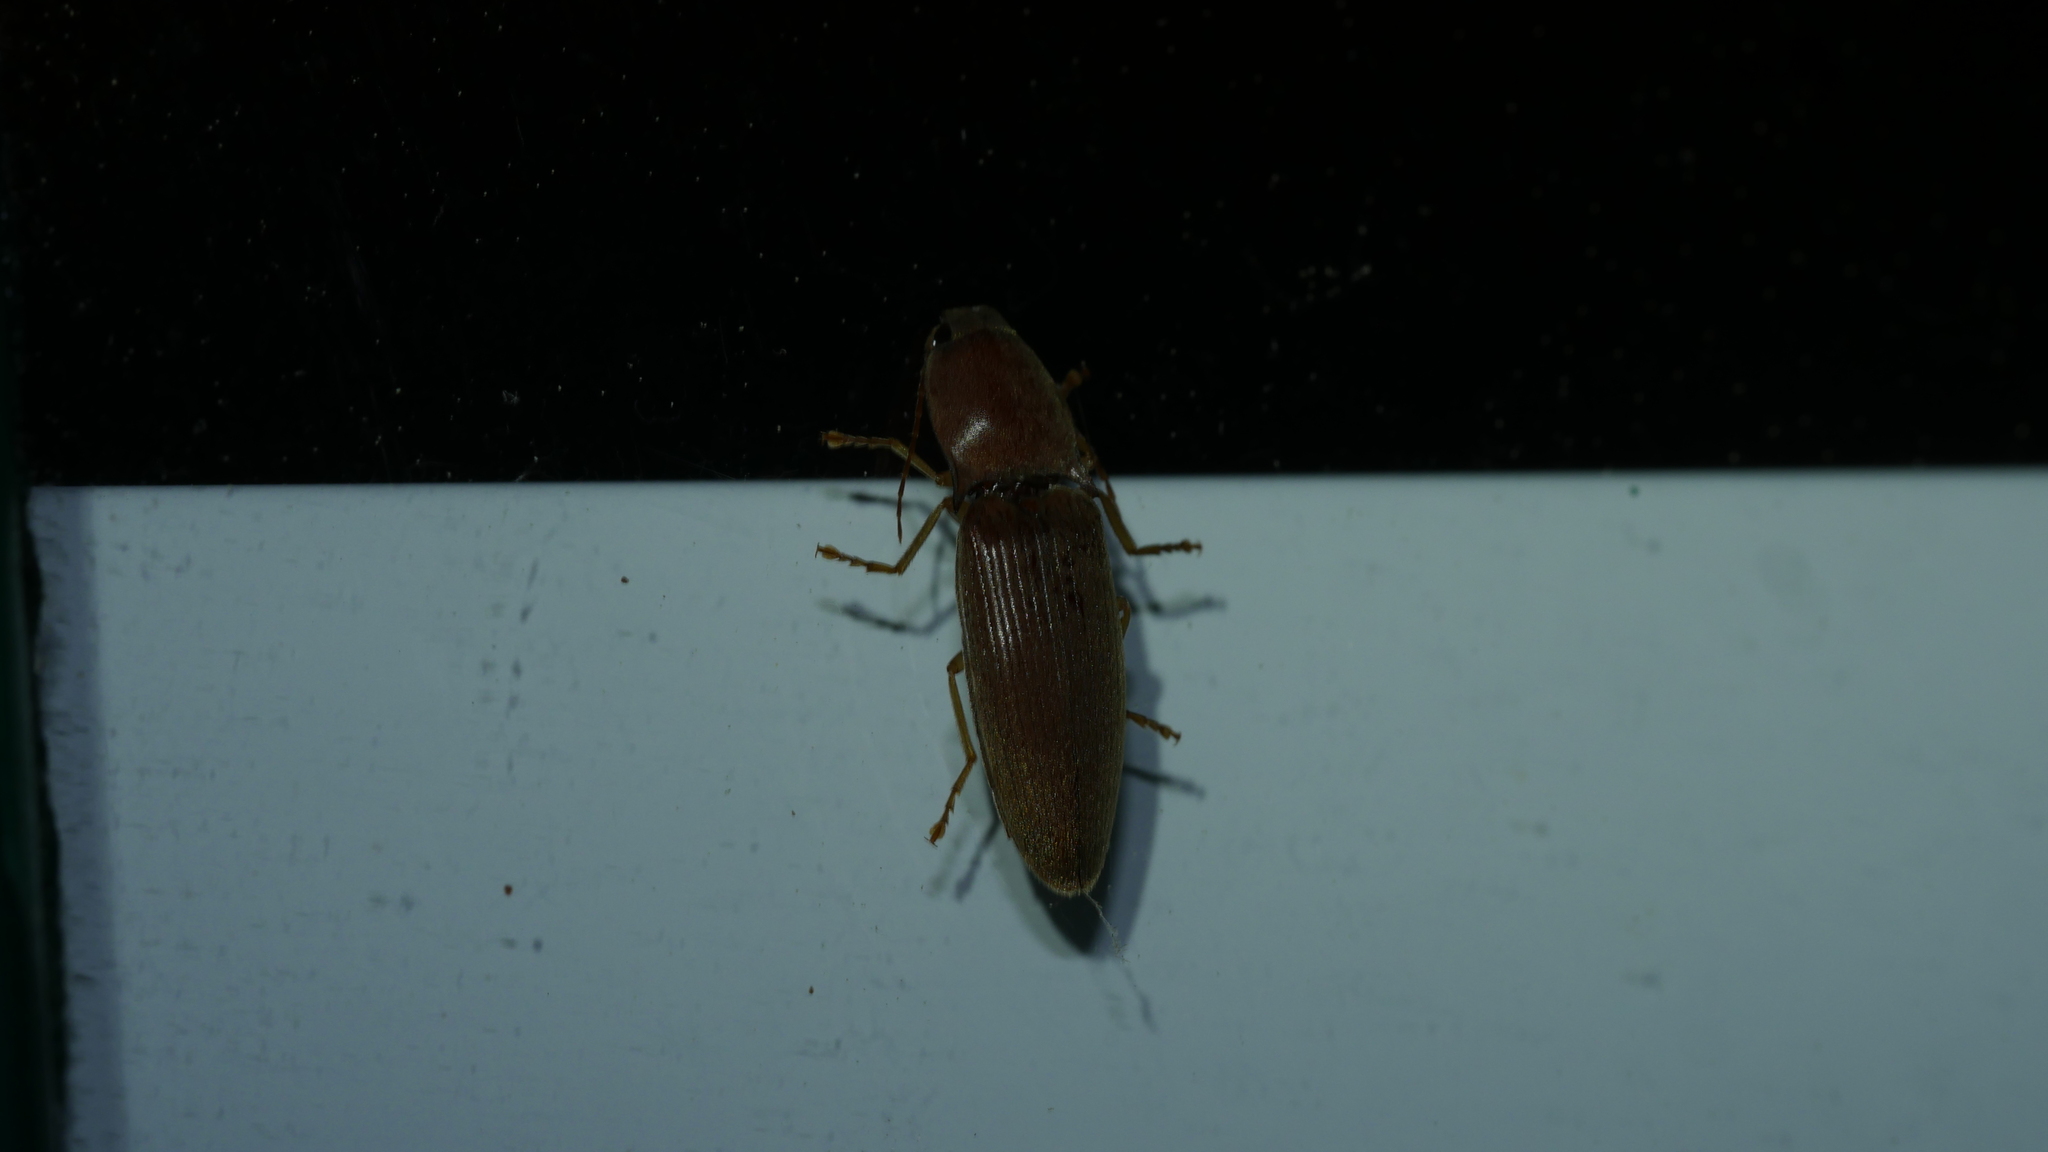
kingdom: Animalia
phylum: Arthropoda
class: Insecta
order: Coleoptera
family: Elateridae
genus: Monocrepidius
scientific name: Monocrepidius lividus
